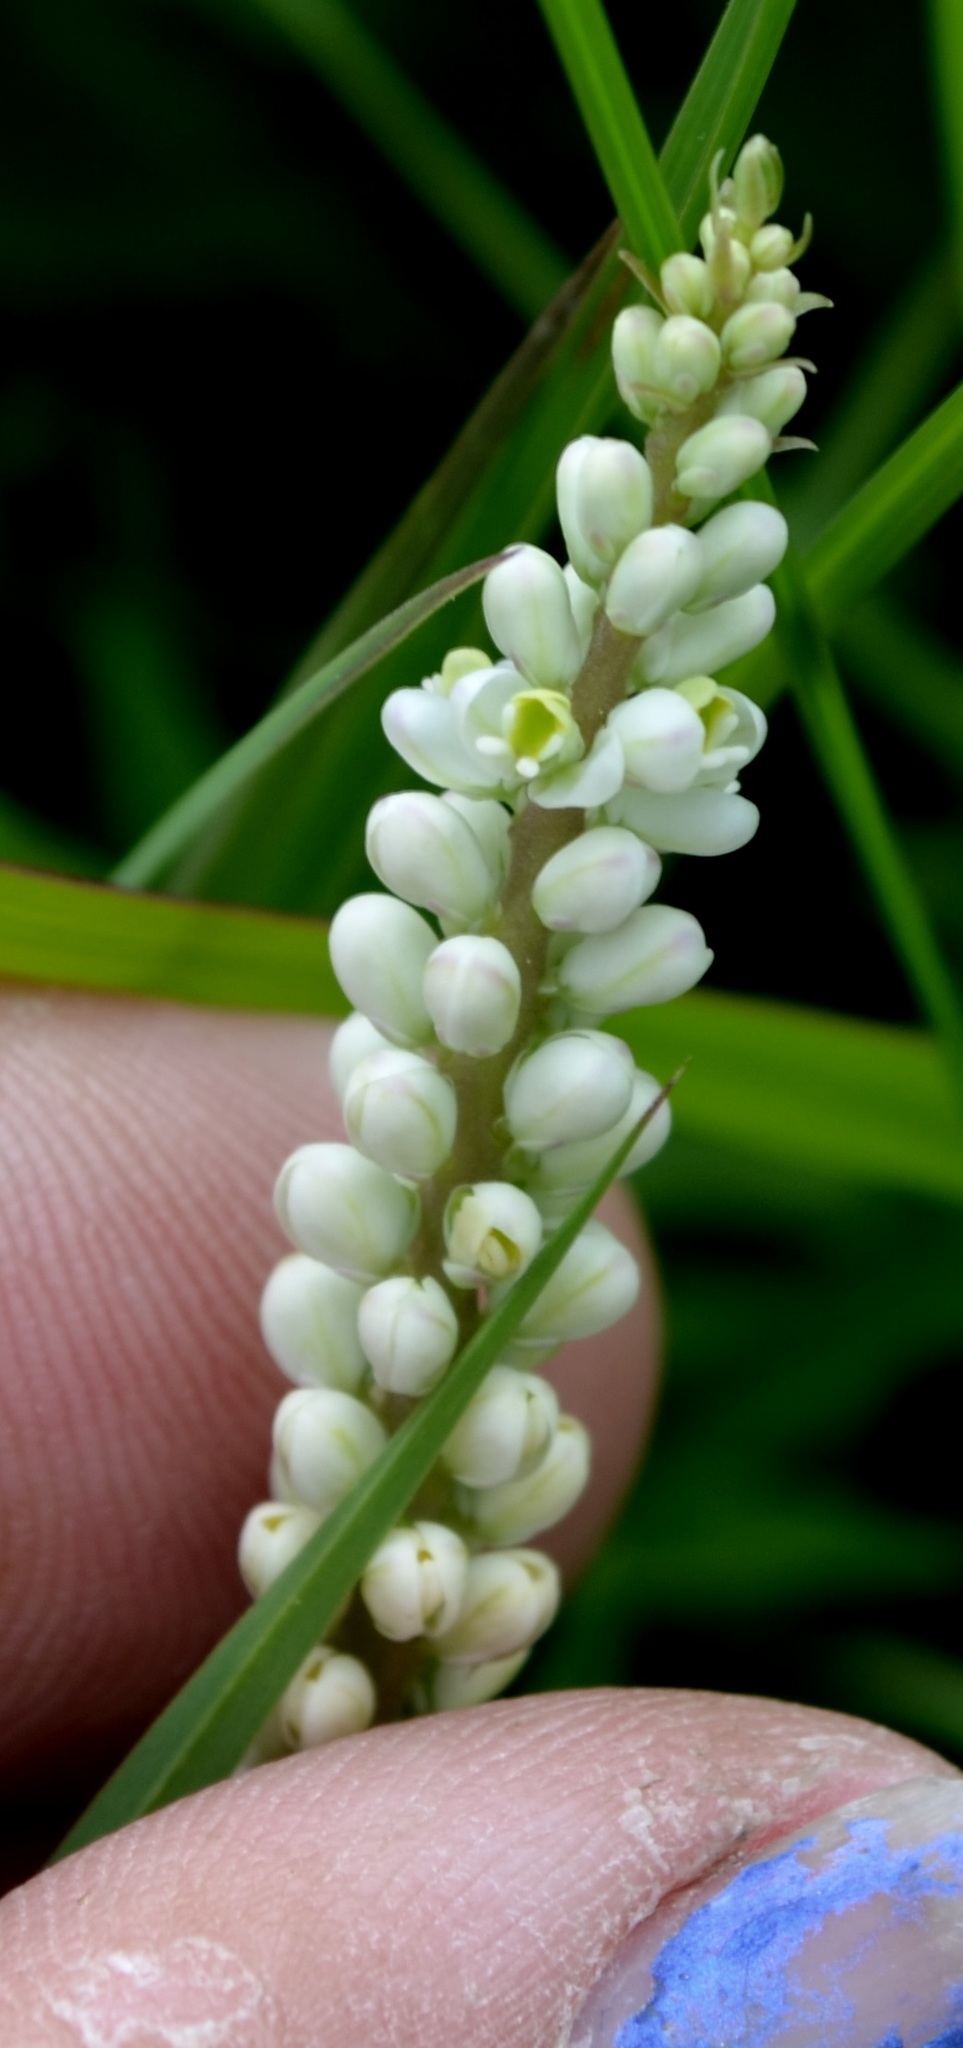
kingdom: Plantae
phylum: Tracheophyta
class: Magnoliopsida
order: Fabales
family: Polygalaceae
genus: Polygala
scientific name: Polygala senega
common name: Seneca snakeroot
